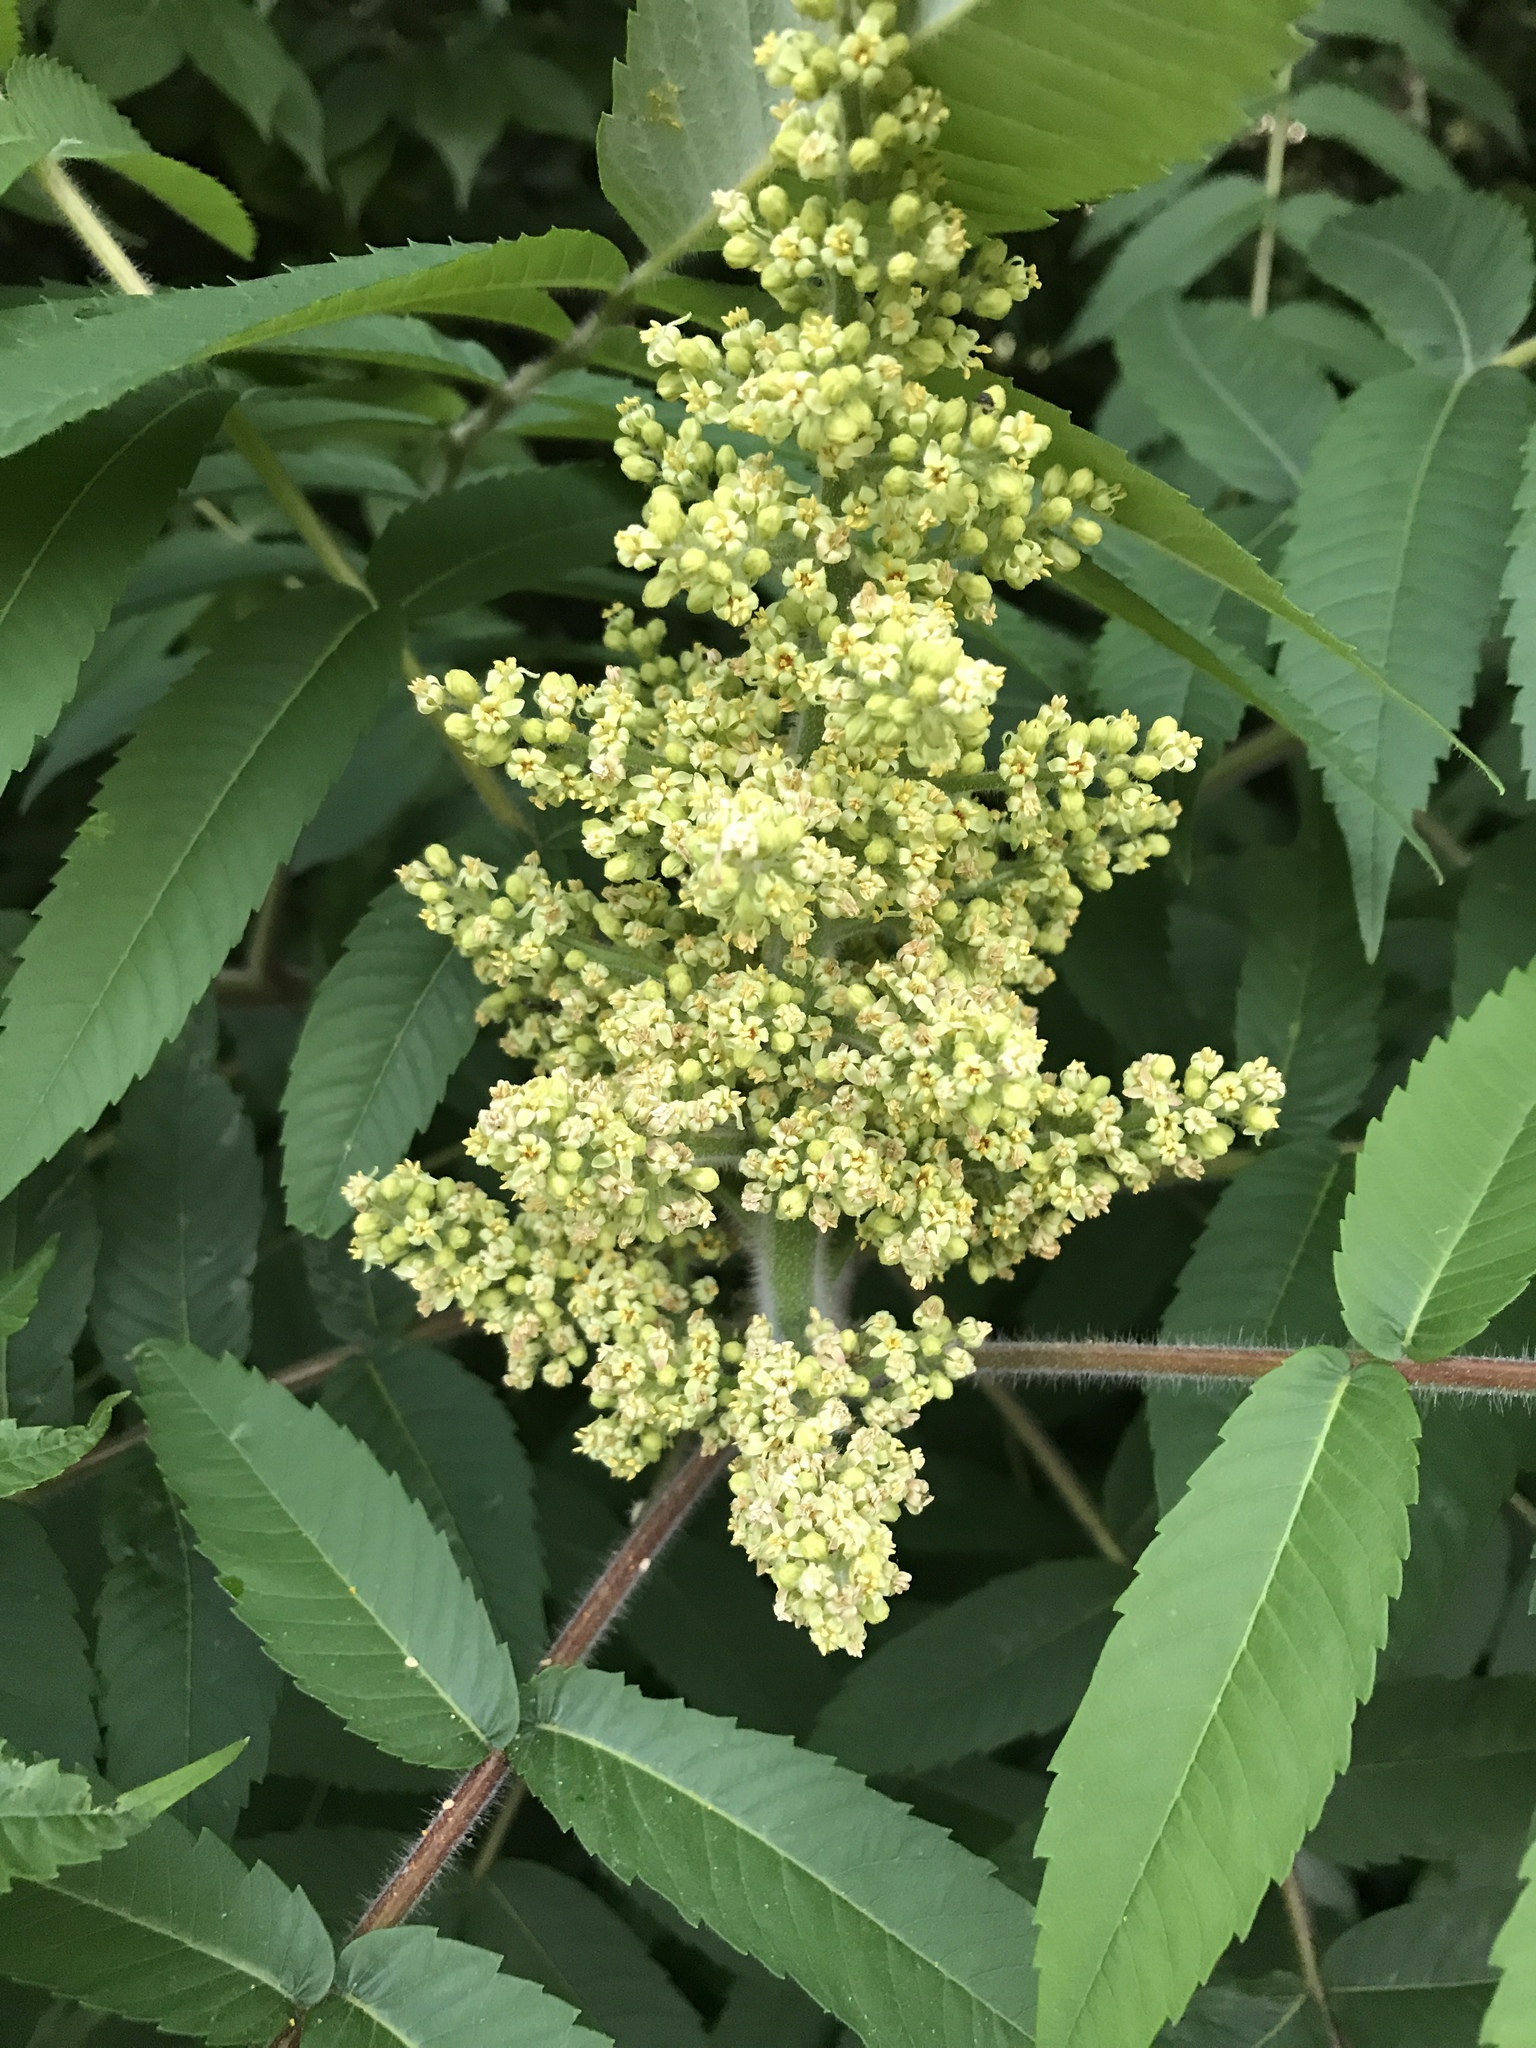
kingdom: Plantae
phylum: Tracheophyta
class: Magnoliopsida
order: Sapindales
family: Anacardiaceae
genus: Rhus
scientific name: Rhus typhina
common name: Staghorn sumac
